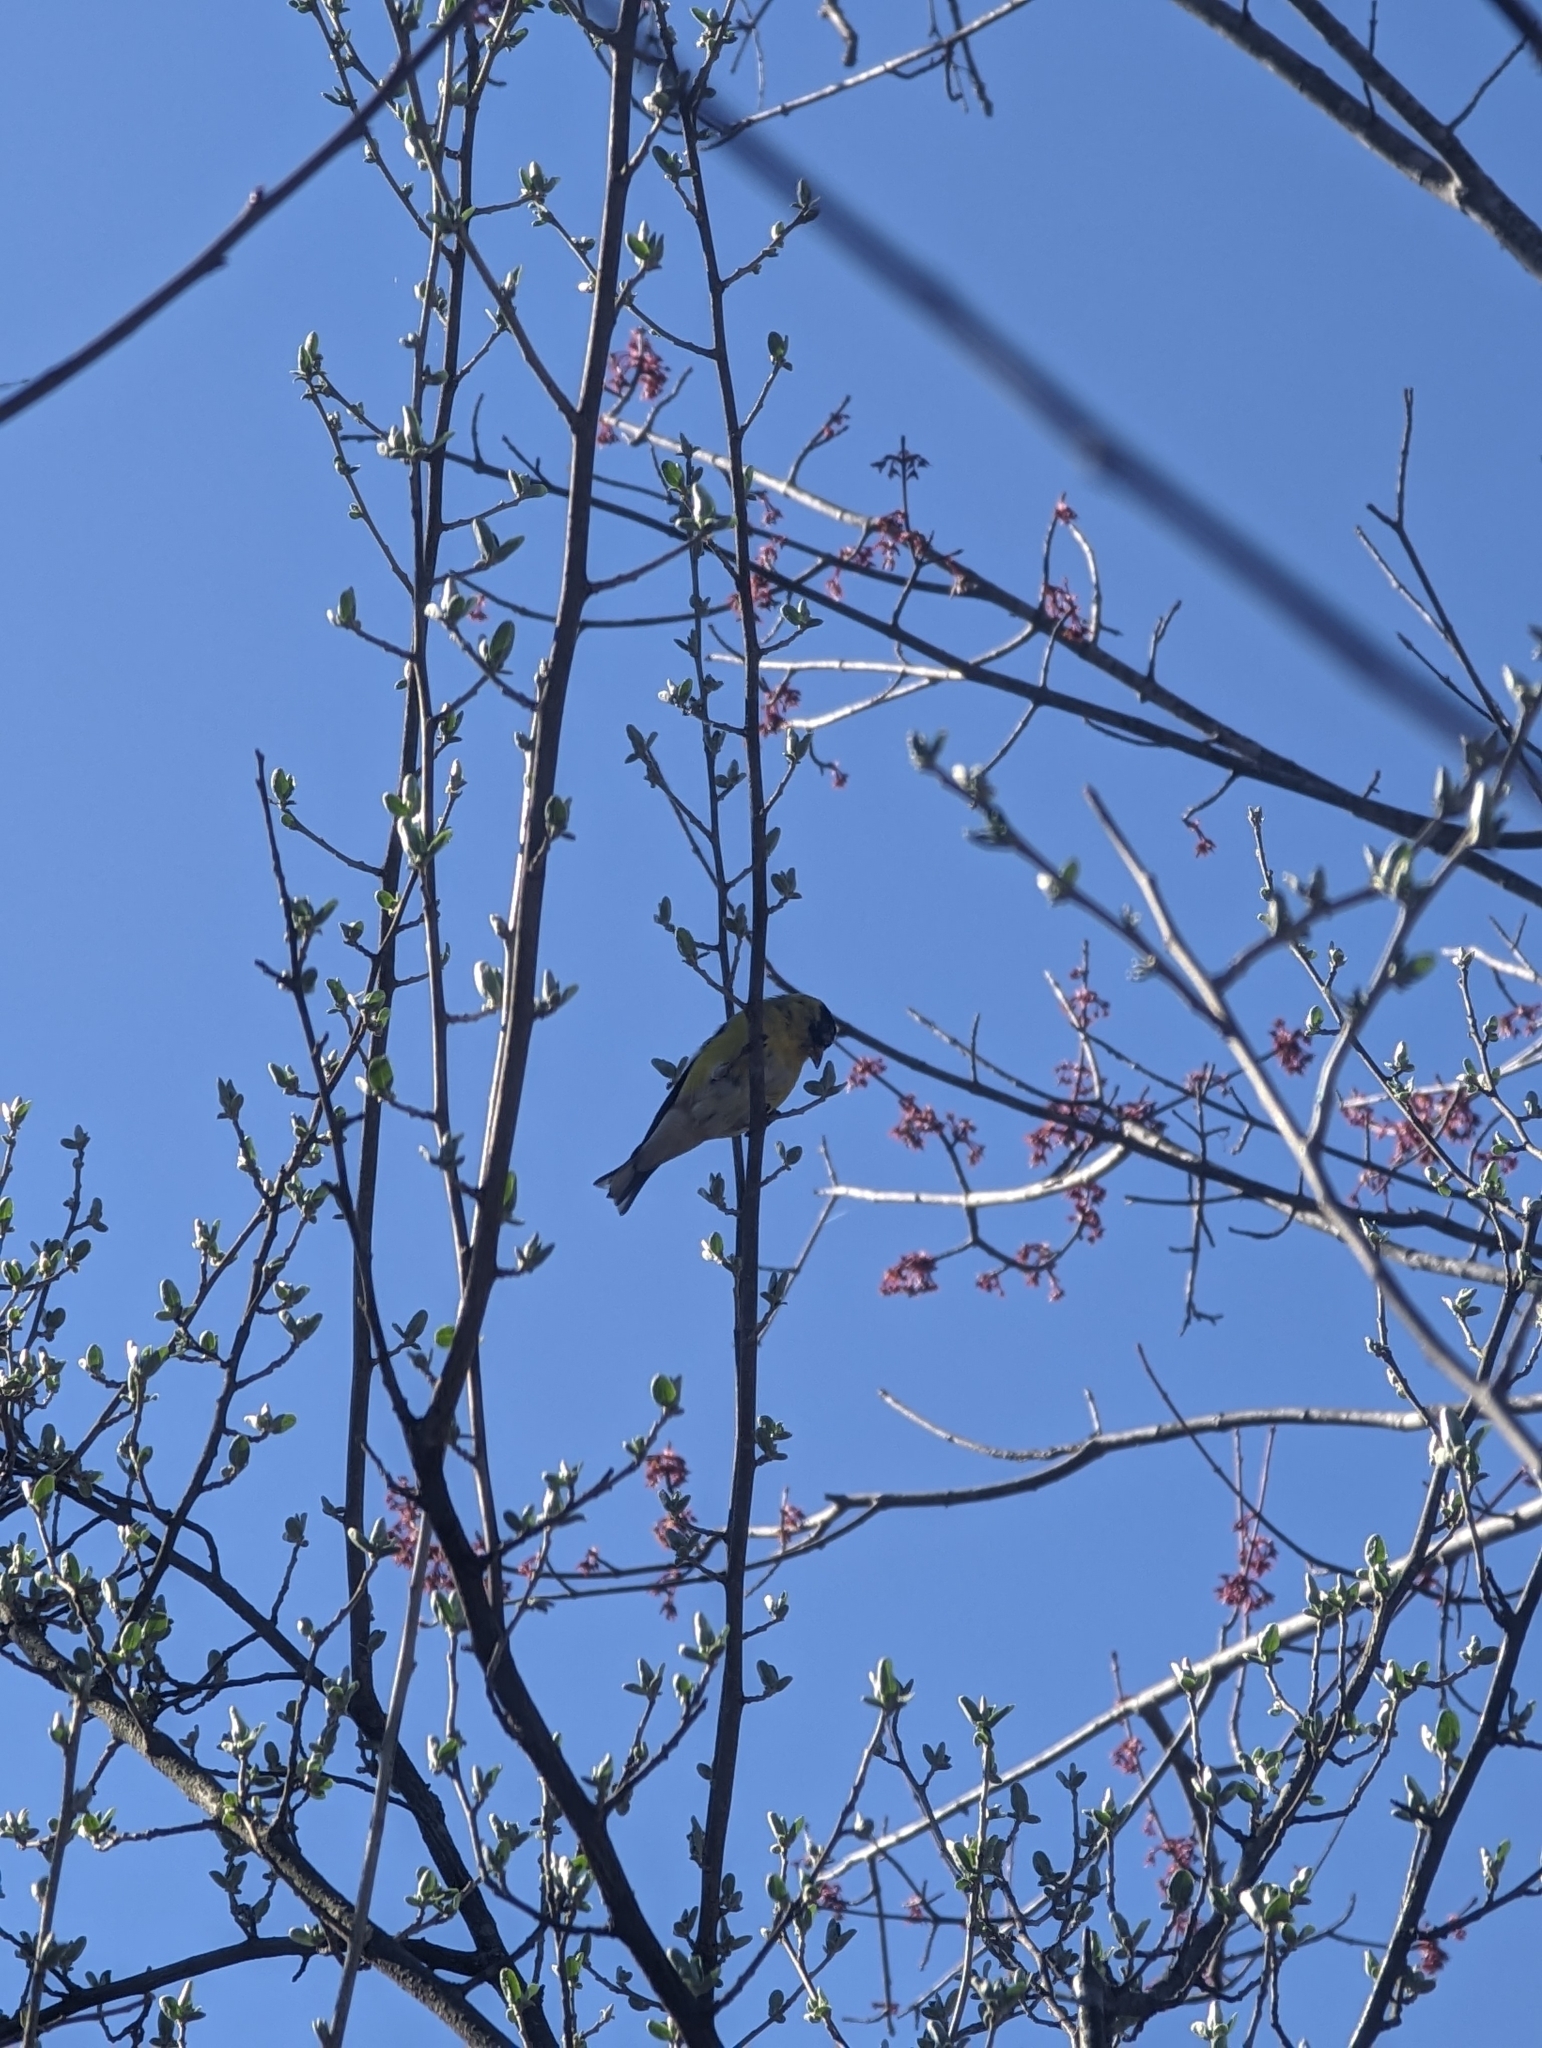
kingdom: Animalia
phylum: Chordata
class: Aves
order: Passeriformes
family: Fringillidae
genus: Spinus
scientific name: Spinus tristis
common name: American goldfinch
